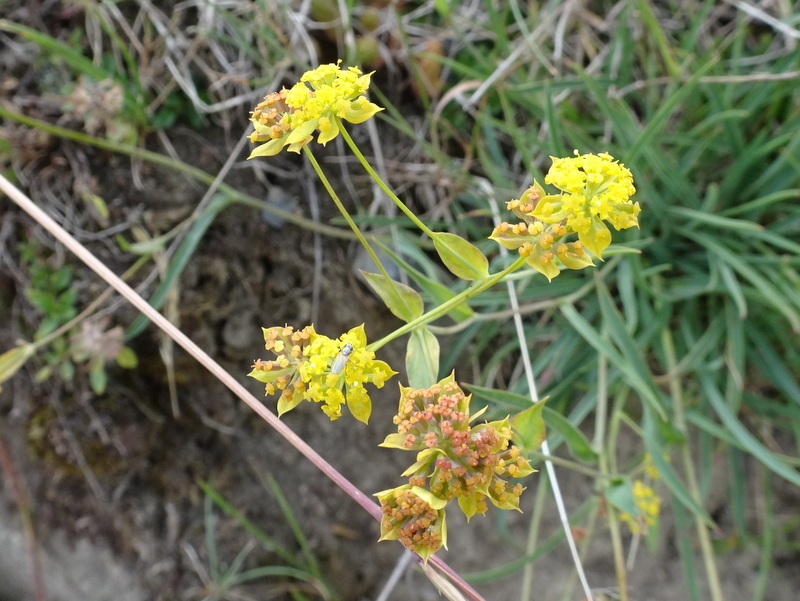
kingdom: Plantae
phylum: Tracheophyta
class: Magnoliopsida
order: Apiales
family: Apiaceae
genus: Bupleurum
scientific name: Bupleurum ranunculoides
